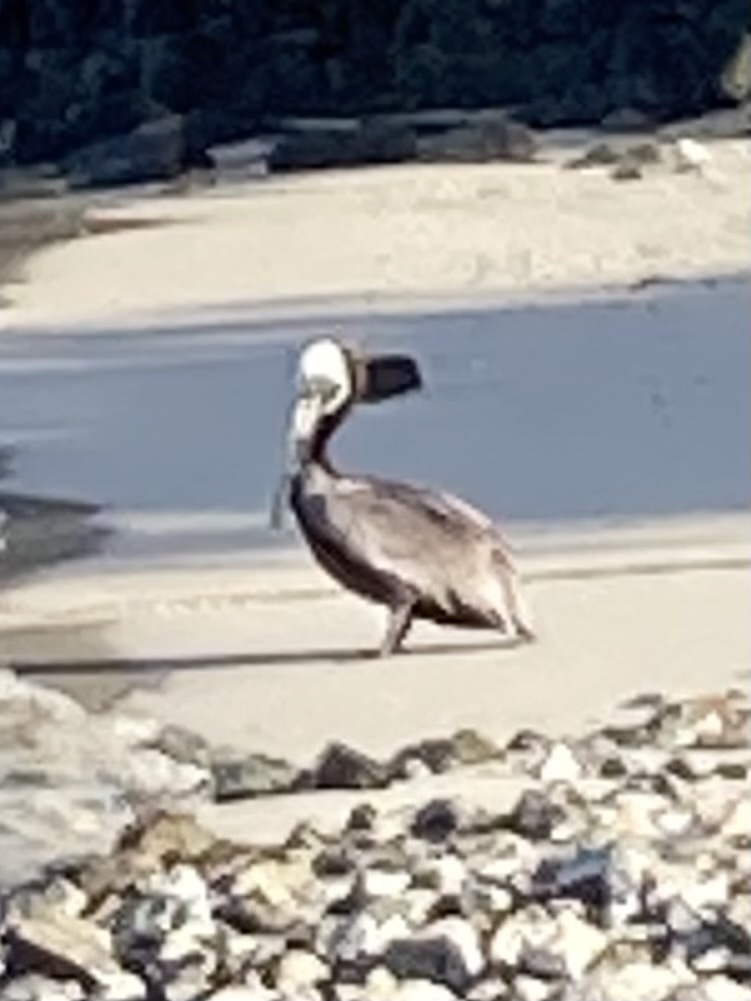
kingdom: Animalia
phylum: Chordata
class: Aves
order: Pelecaniformes
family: Pelecanidae
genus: Pelecanus
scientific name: Pelecanus occidentalis
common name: Brown pelican
